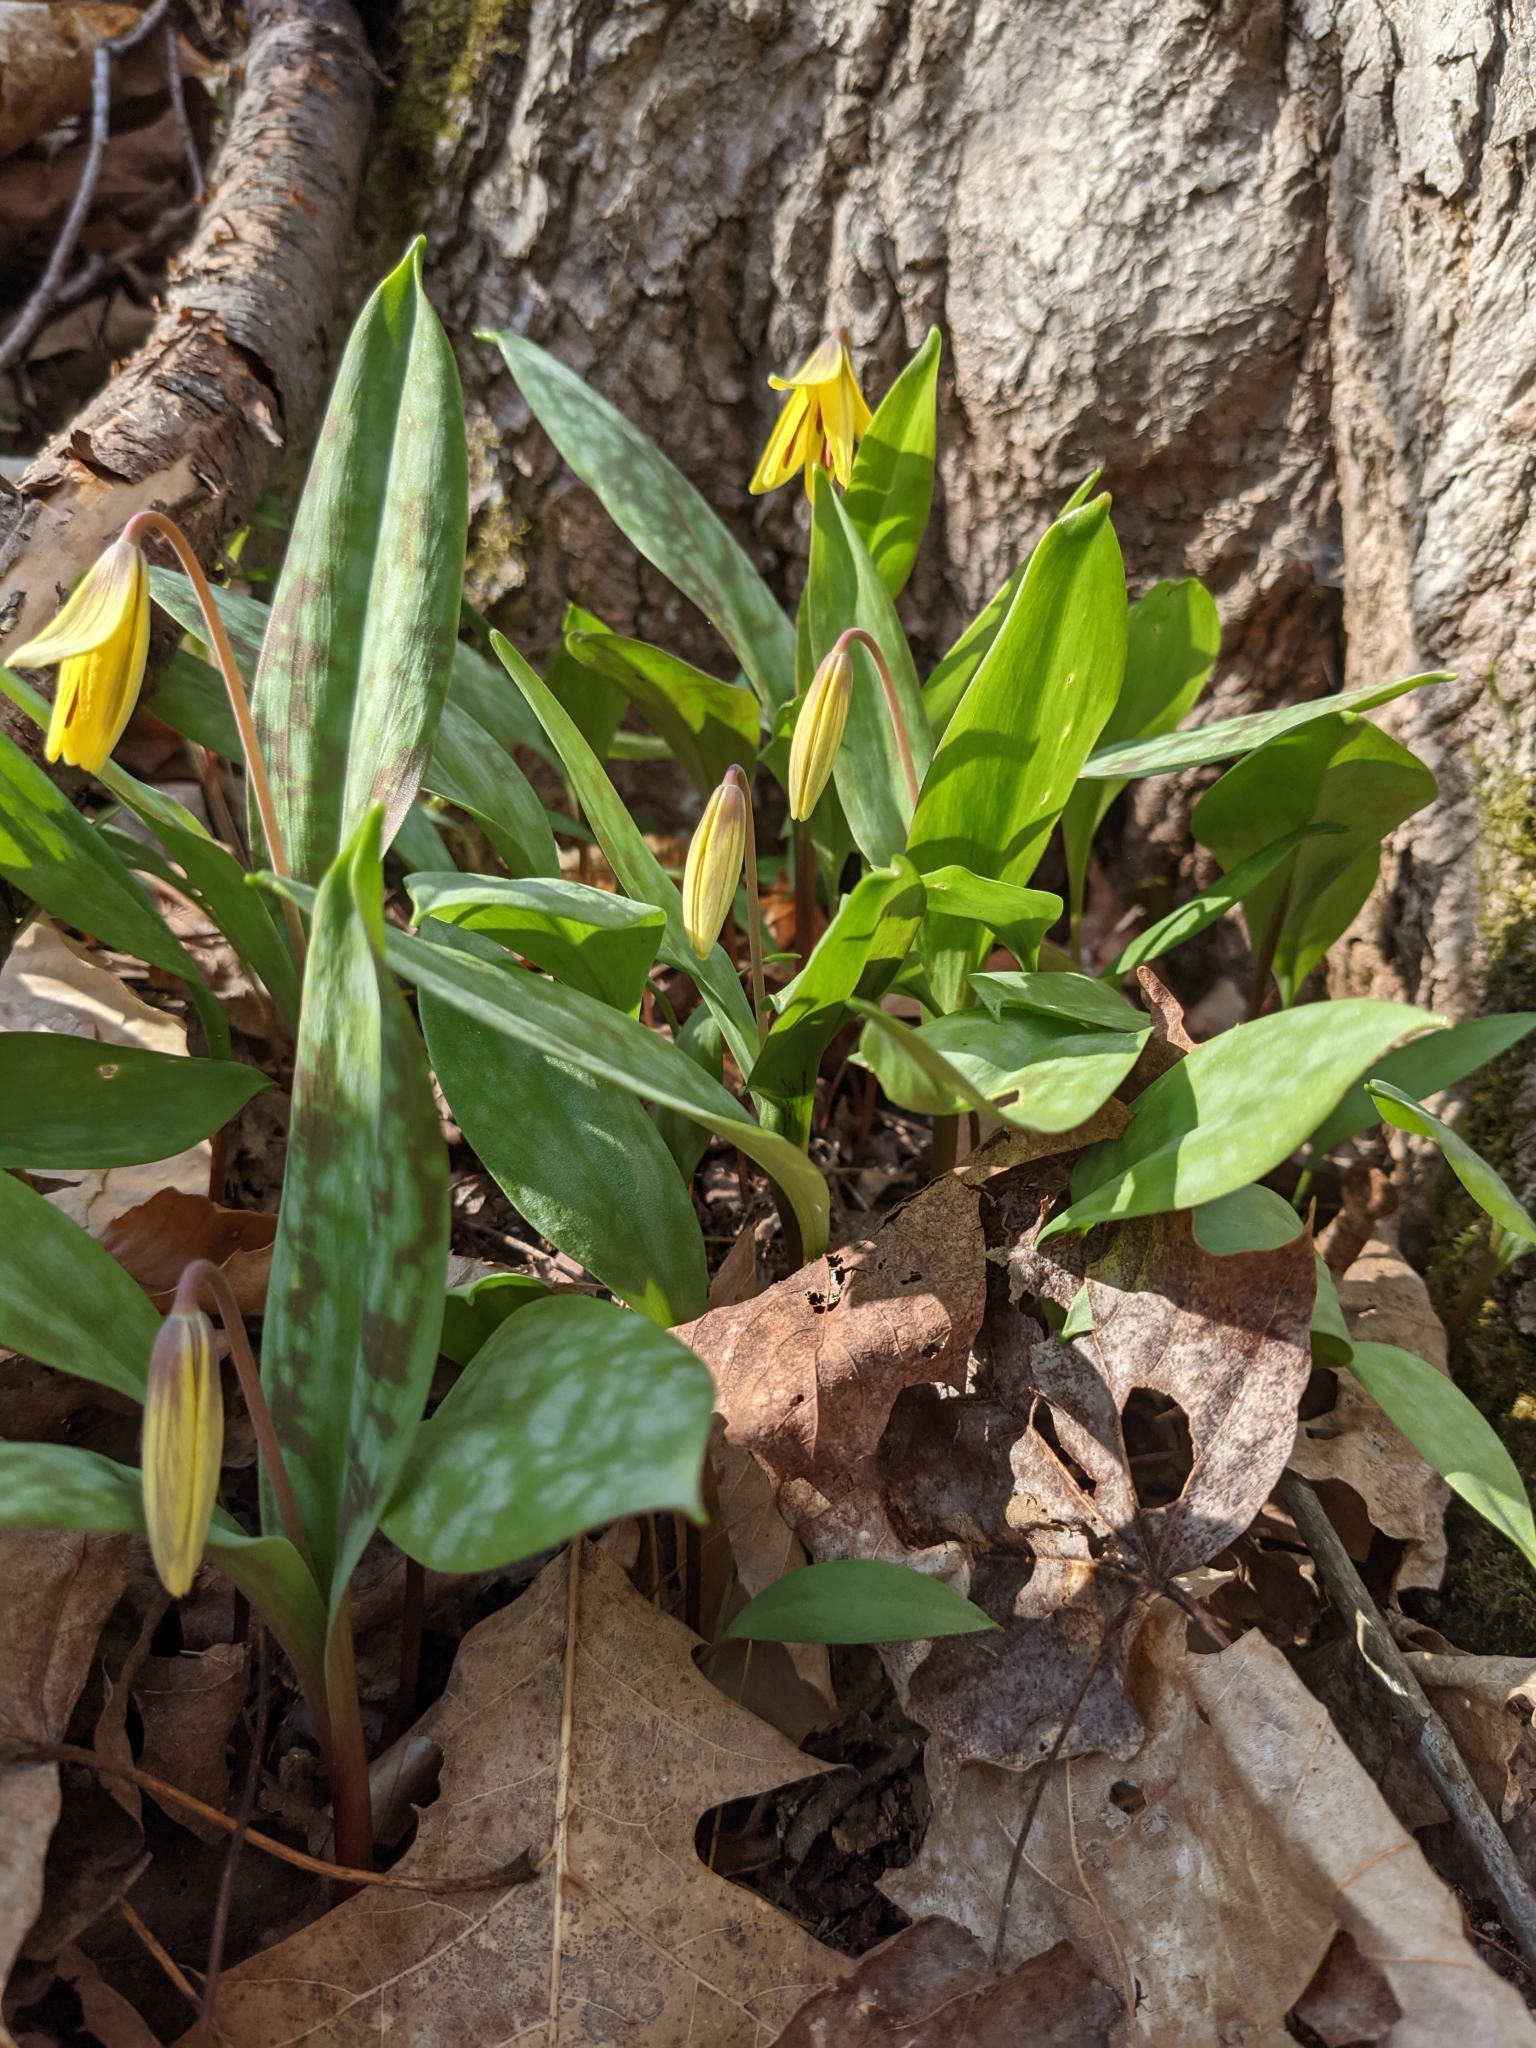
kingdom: Plantae
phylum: Tracheophyta
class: Liliopsida
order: Liliales
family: Liliaceae
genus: Erythronium
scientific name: Erythronium americanum
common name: Yellow adder's-tongue
